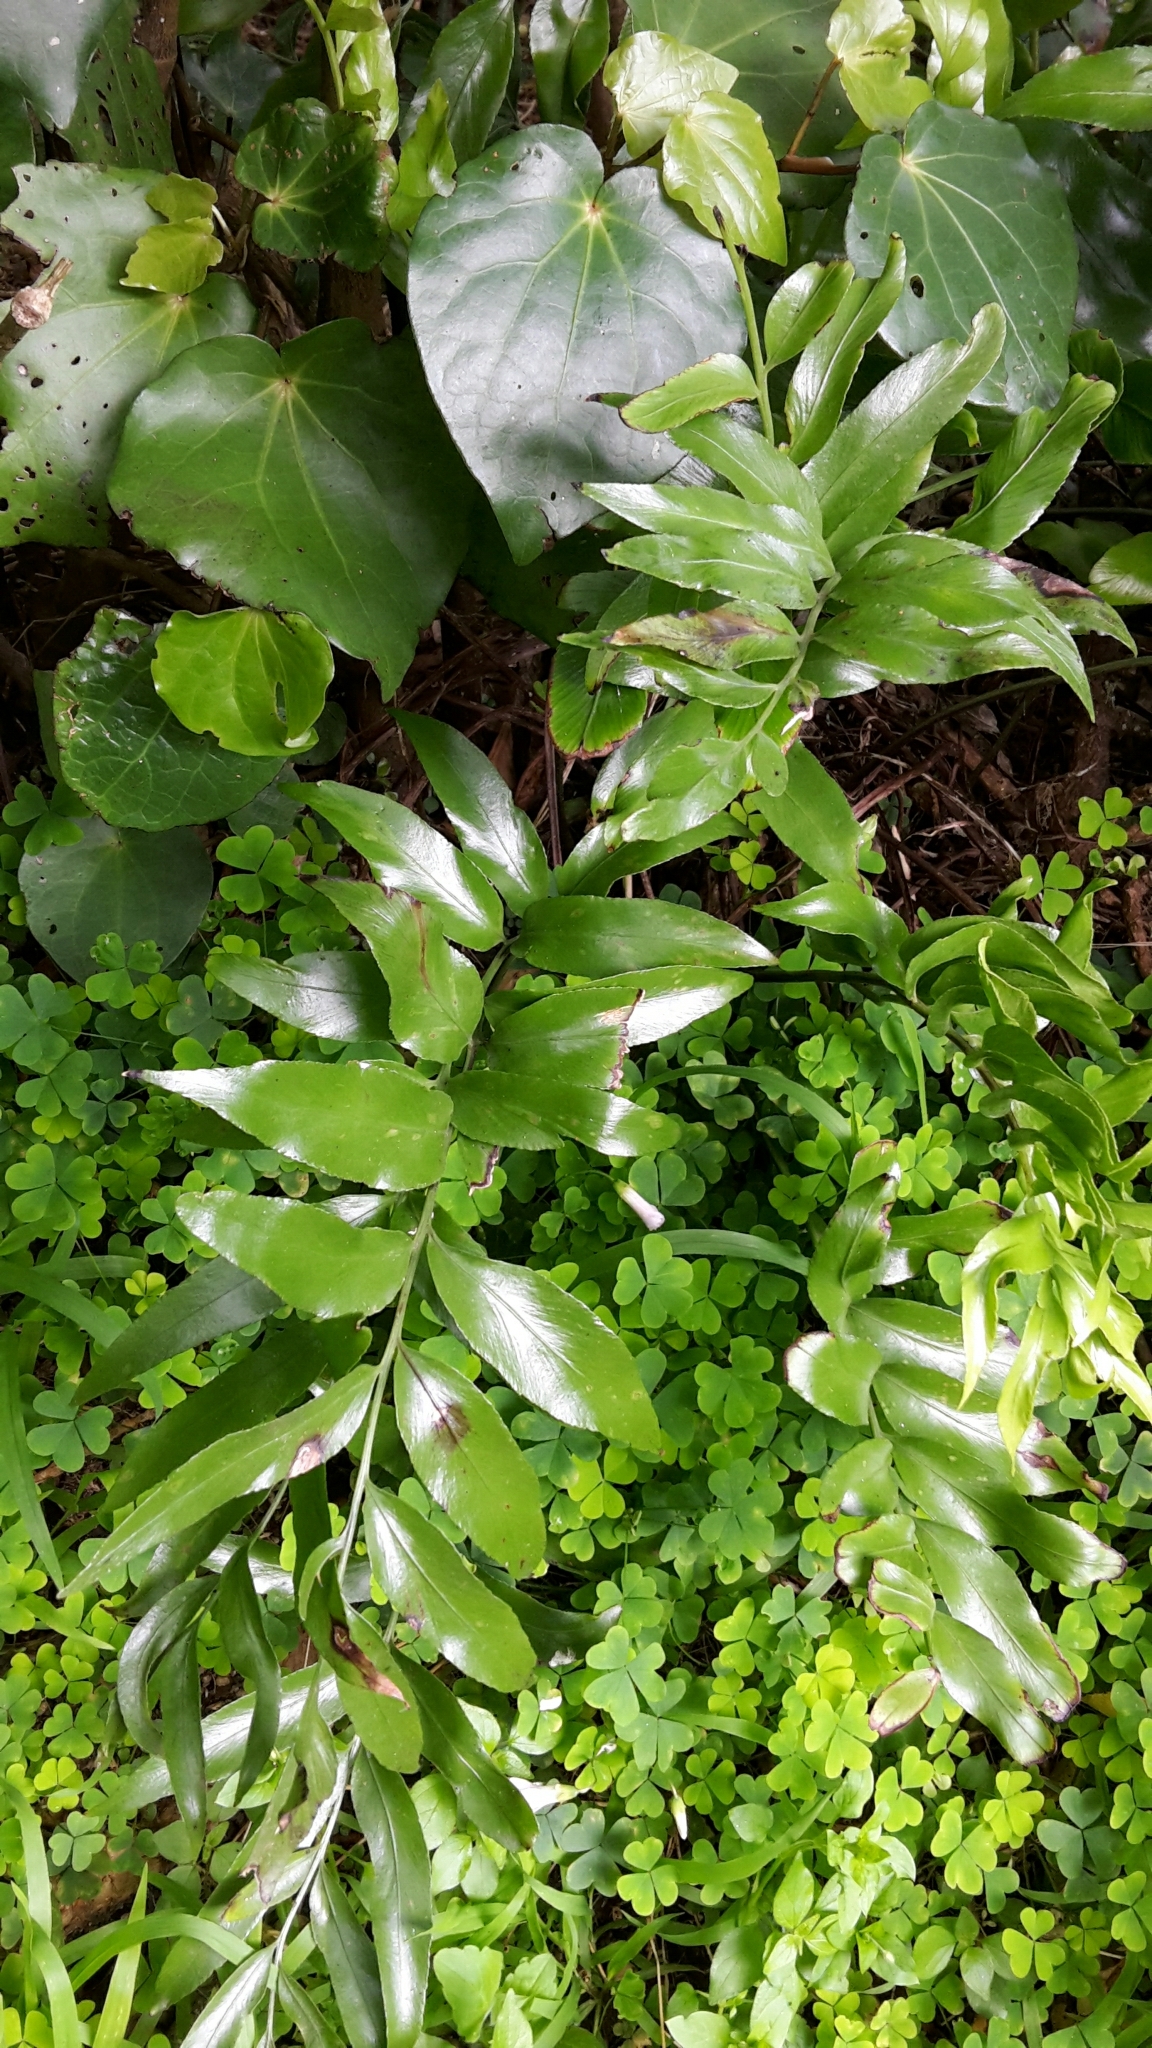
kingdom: Plantae
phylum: Tracheophyta
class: Polypodiopsida
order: Polypodiales
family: Aspleniaceae
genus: Asplenium
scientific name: Asplenium oblongifolium
